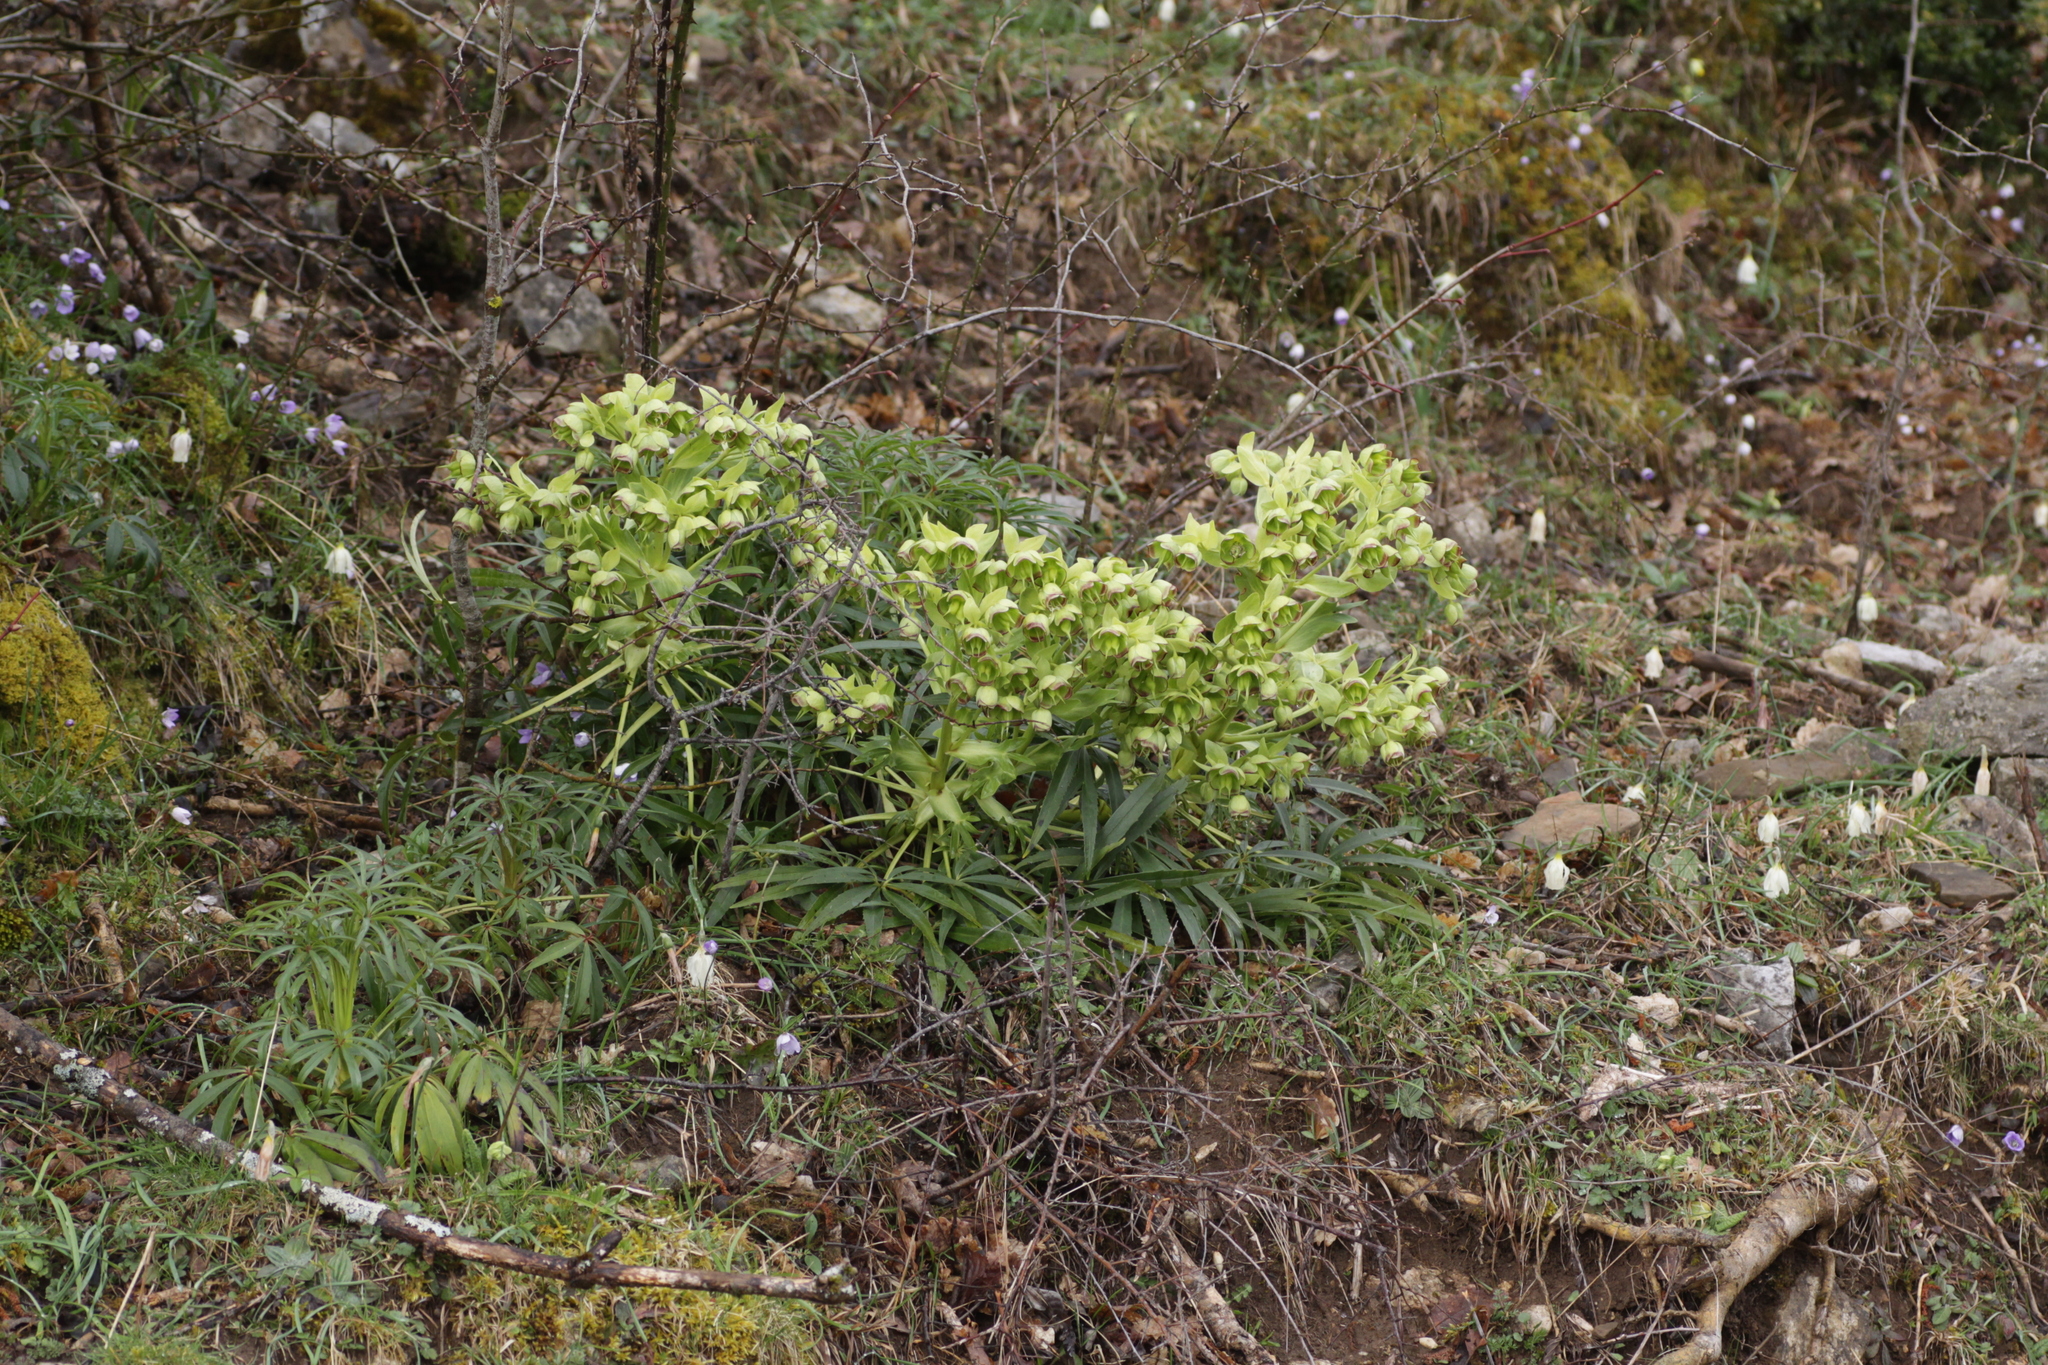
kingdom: Plantae
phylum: Tracheophyta
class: Magnoliopsida
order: Ranunculales
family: Ranunculaceae
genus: Helleborus
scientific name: Helleborus foetidus
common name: Stinking hellebore
